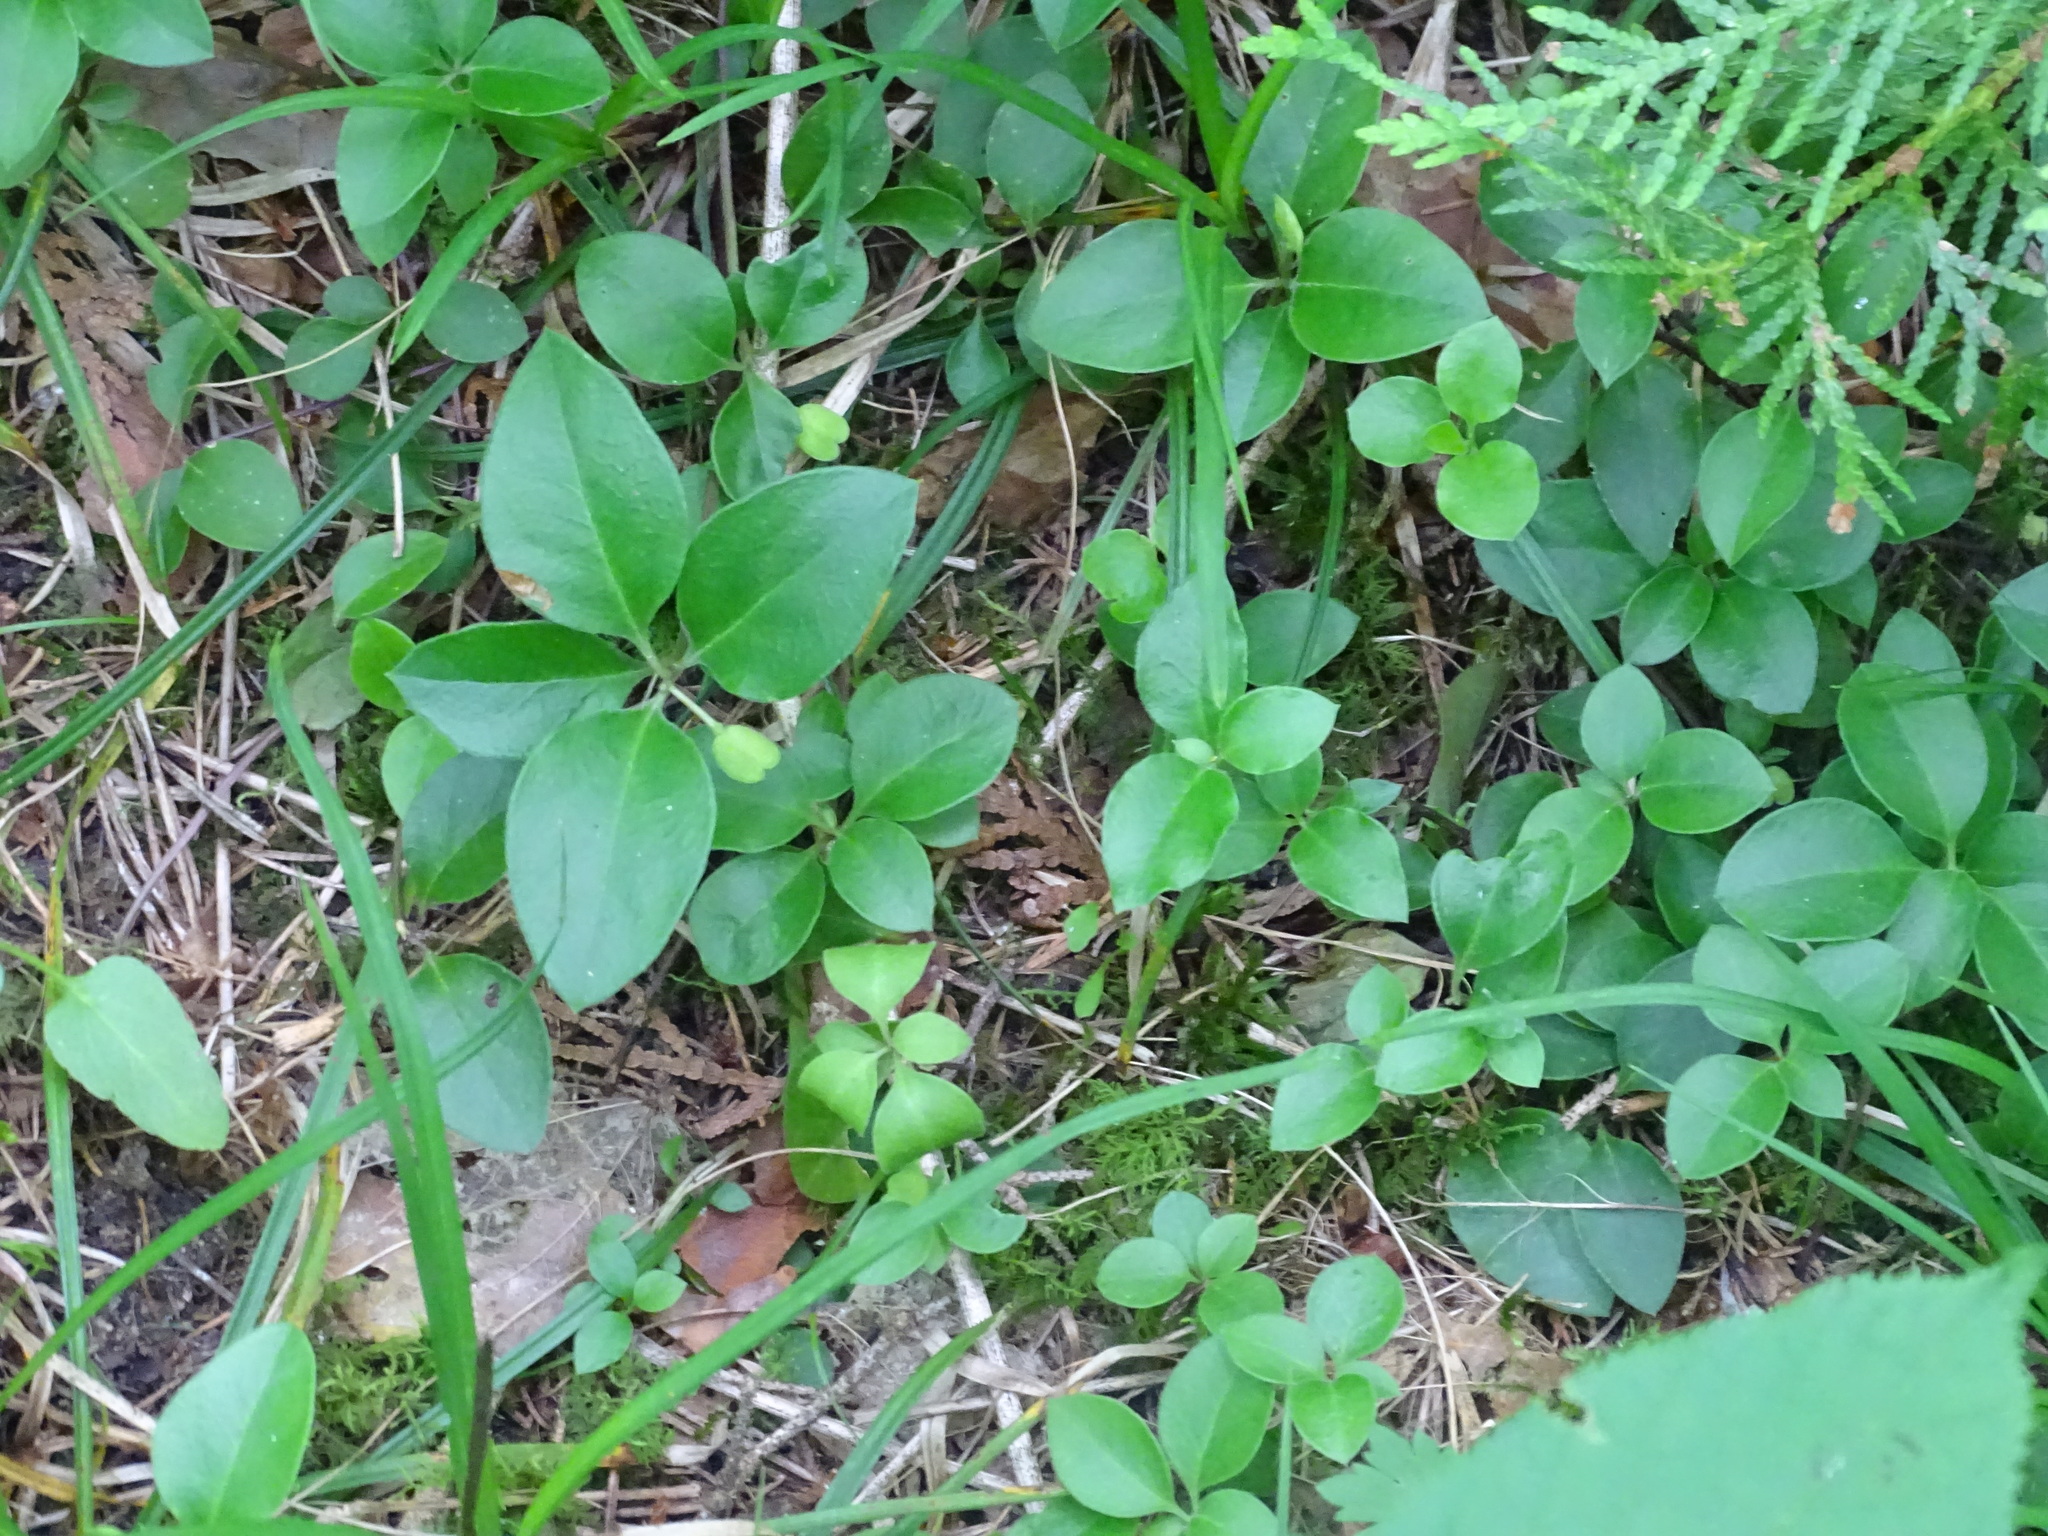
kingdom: Plantae
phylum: Tracheophyta
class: Magnoliopsida
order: Fabales
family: Polygalaceae
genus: Polygaloides
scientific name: Polygaloides paucifolia
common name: Bird-on-the-wing
